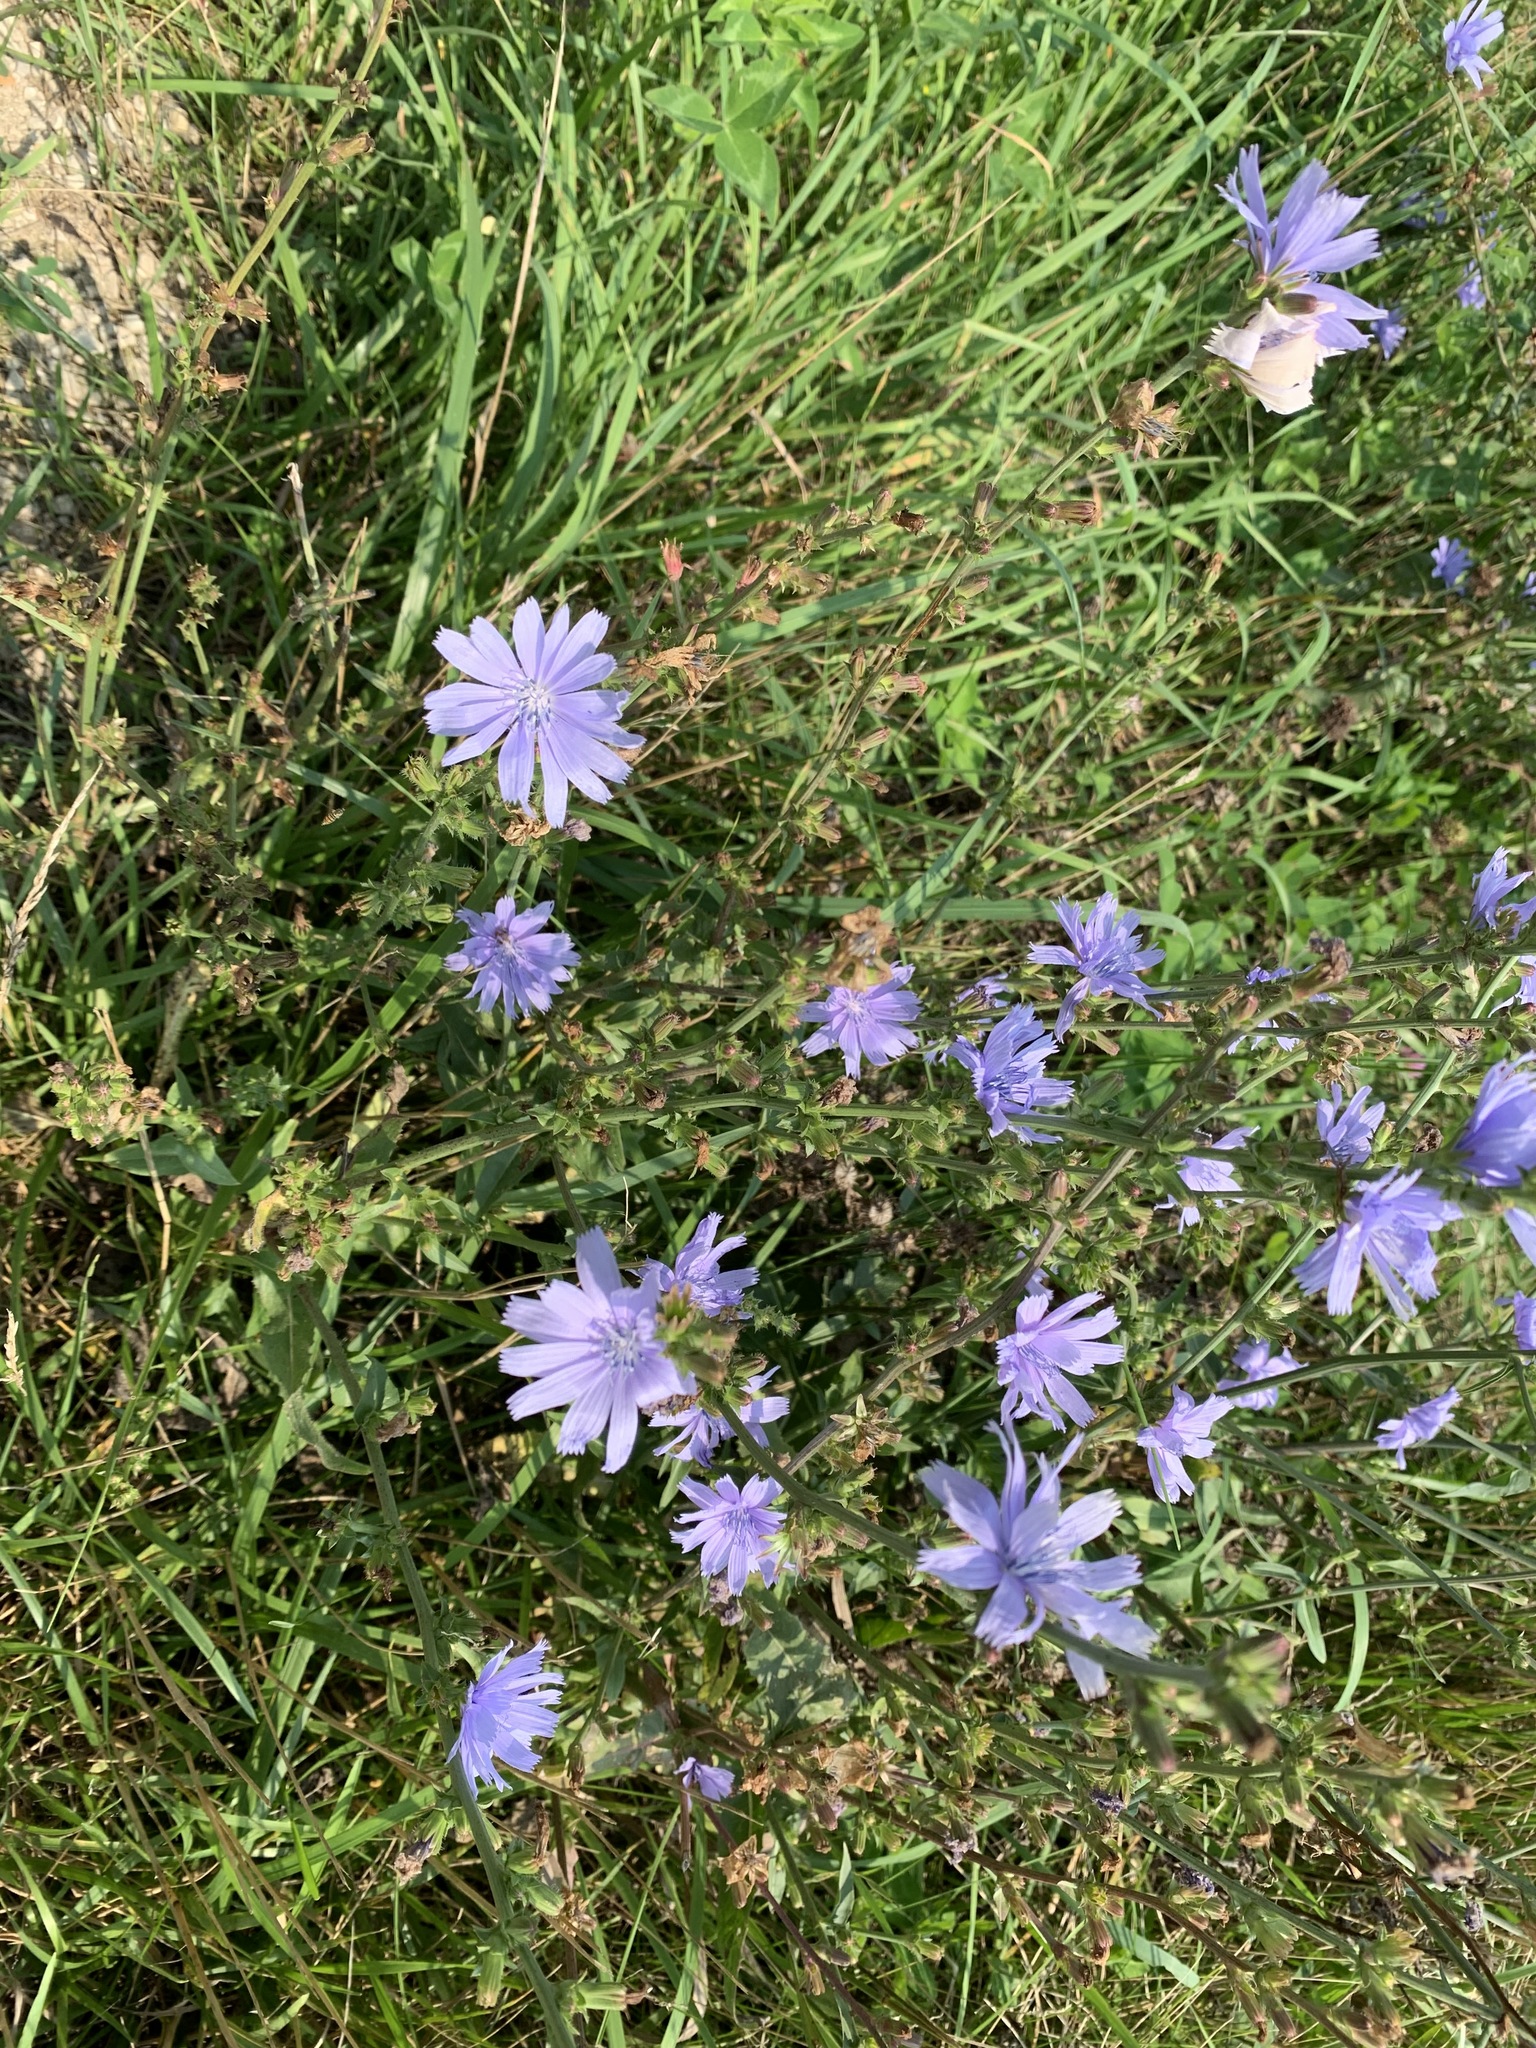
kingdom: Plantae
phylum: Tracheophyta
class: Magnoliopsida
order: Asterales
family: Asteraceae
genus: Cichorium
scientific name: Cichorium intybus
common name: Chicory
